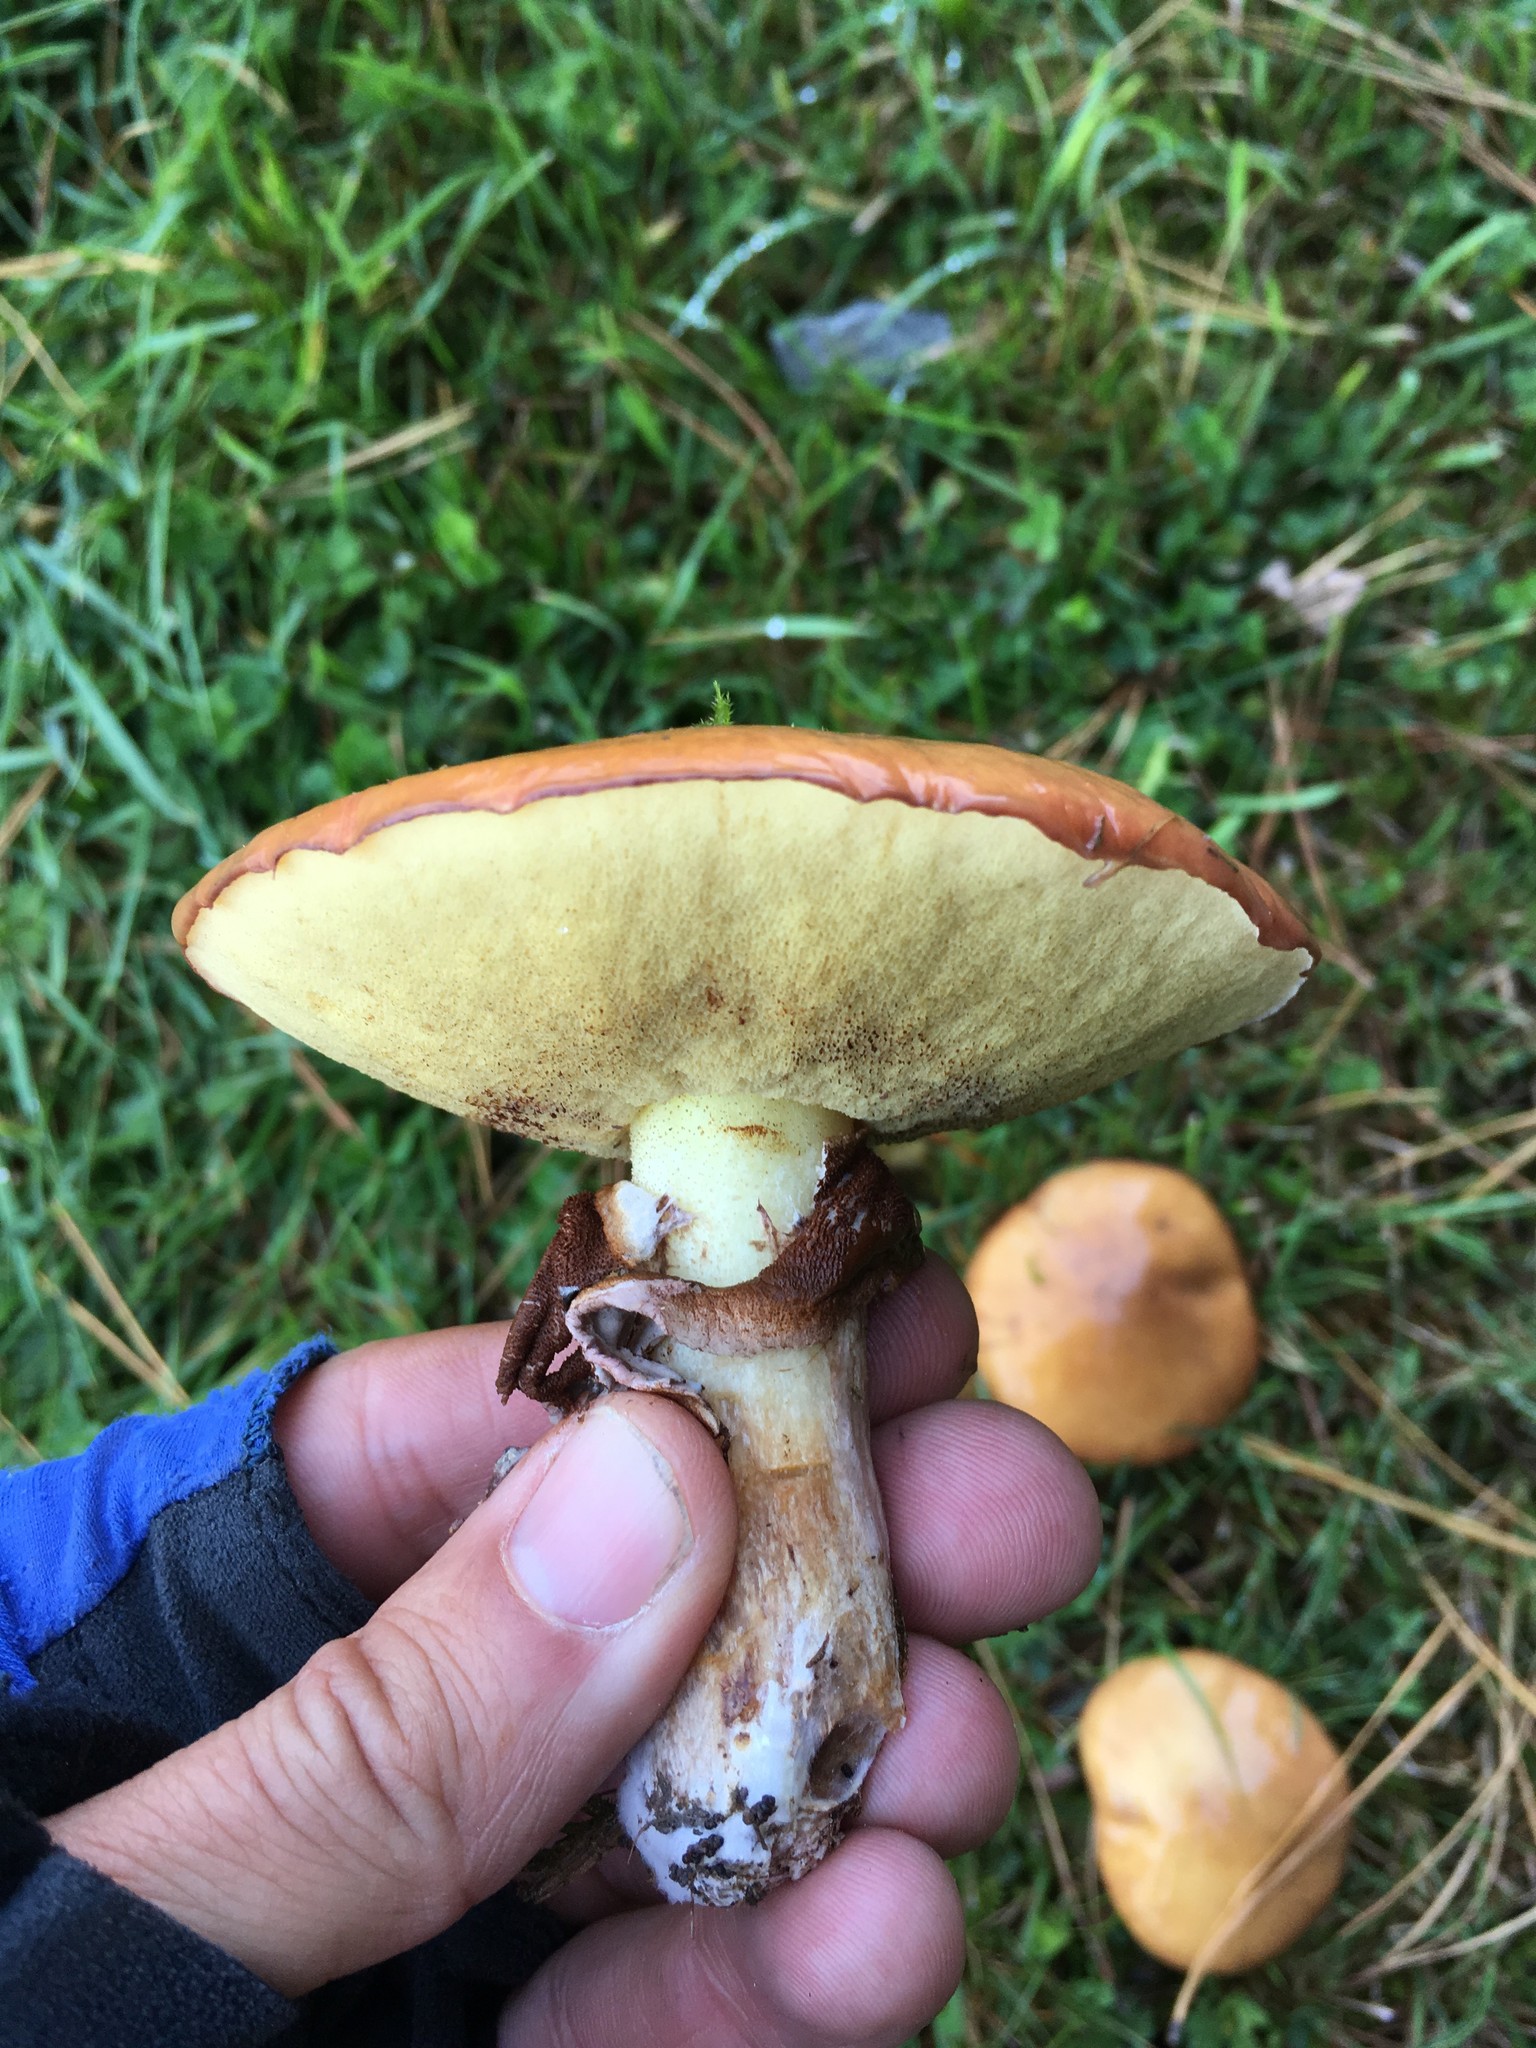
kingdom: Fungi
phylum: Basidiomycota
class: Agaricomycetes
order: Boletales
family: Suillaceae
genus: Suillus
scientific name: Suillus luteus
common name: Slippery jack
